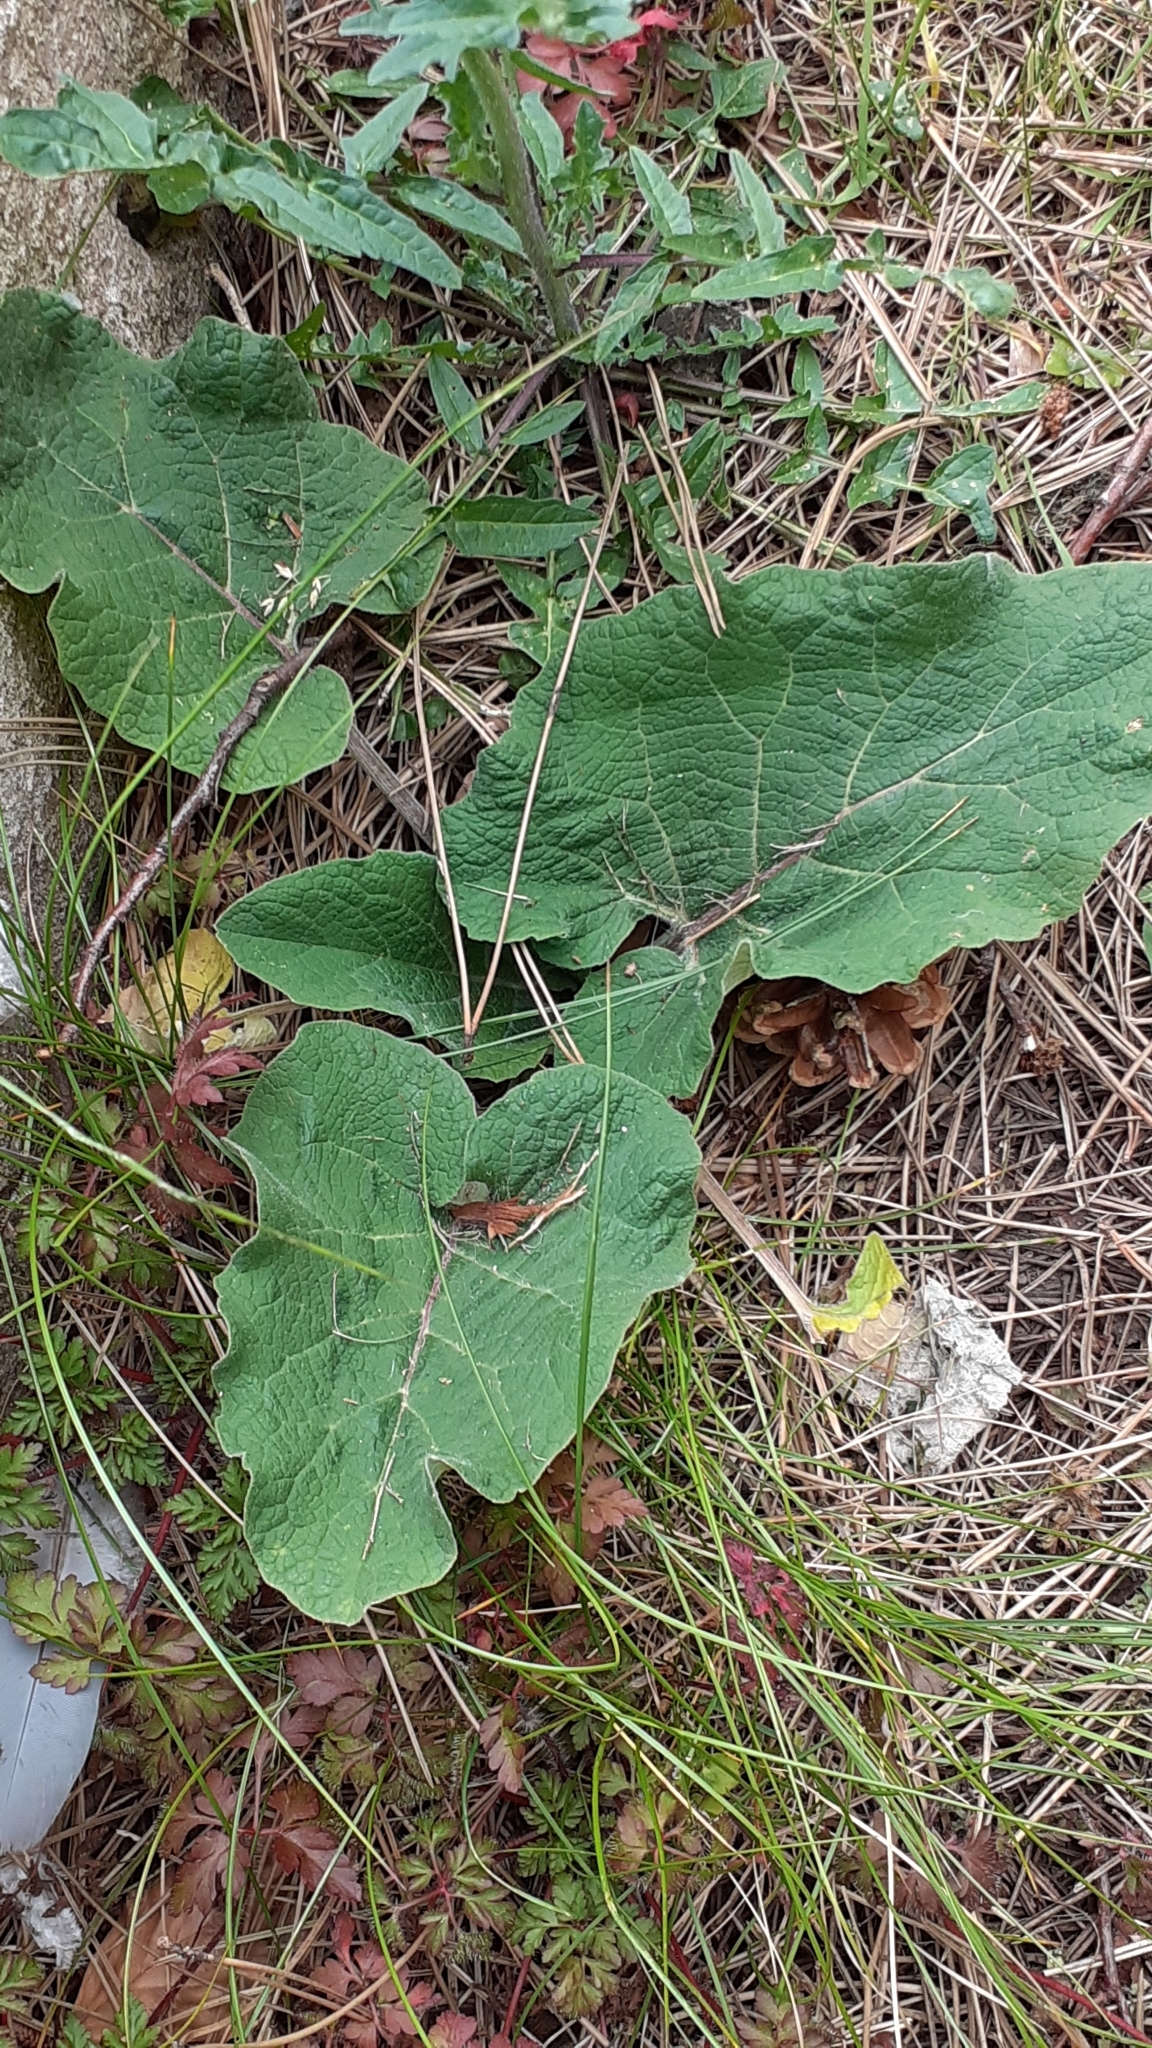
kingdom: Plantae
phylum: Tracheophyta
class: Magnoliopsida
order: Asterales
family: Asteraceae
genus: Arctium
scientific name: Arctium minus
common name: Lesser burdock
